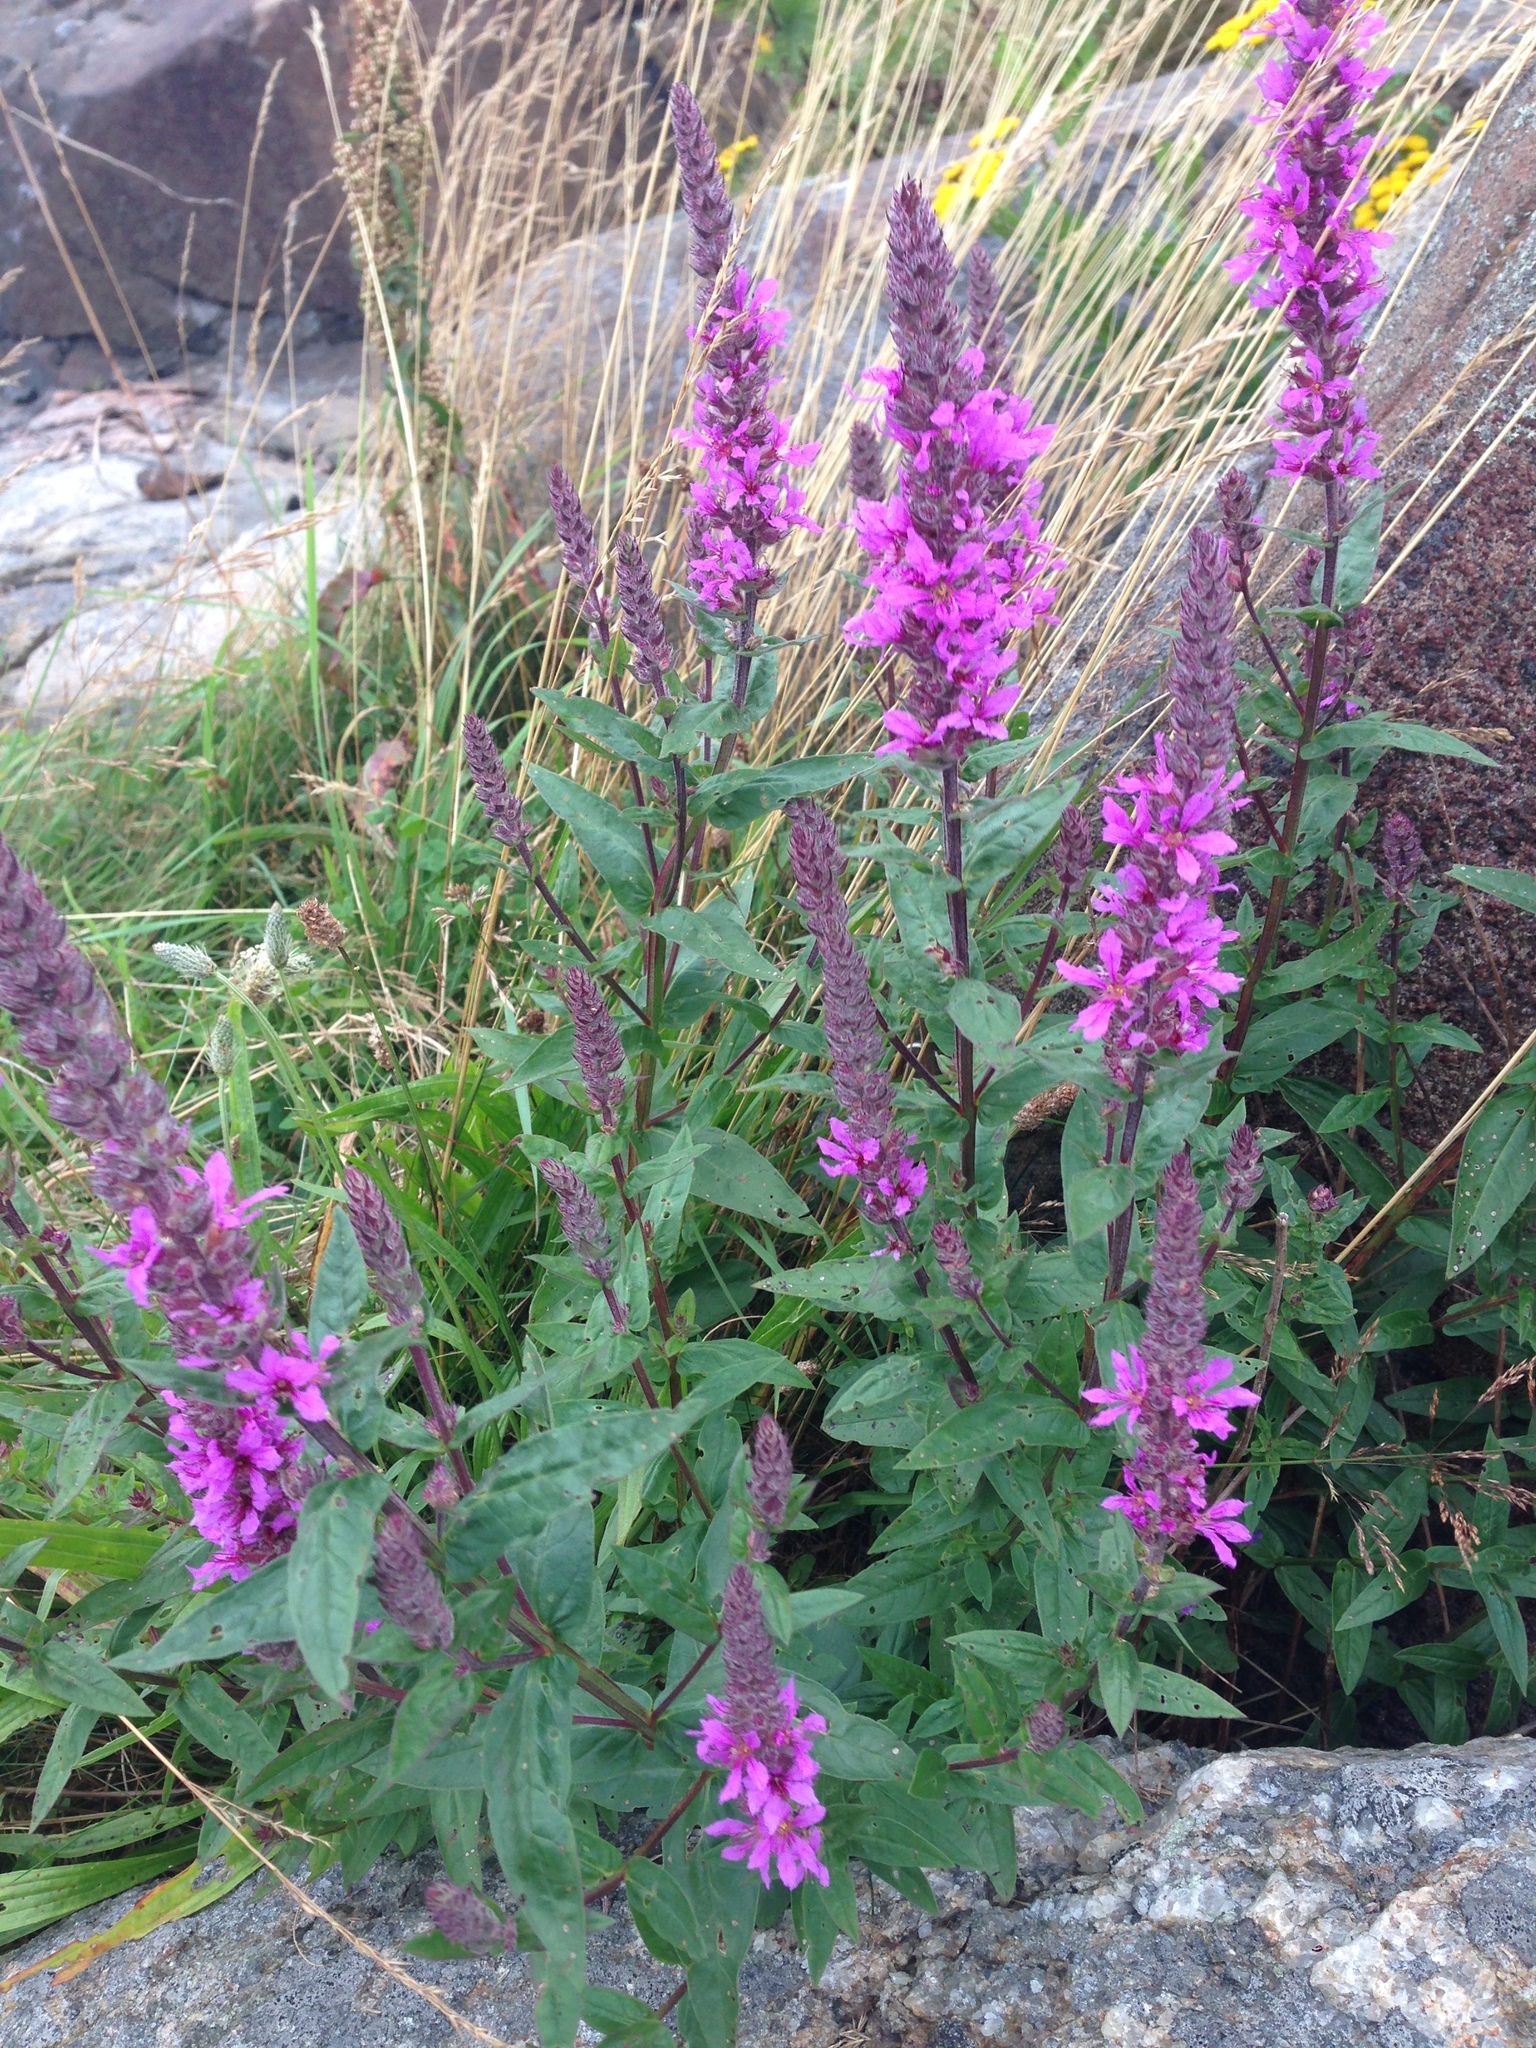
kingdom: Plantae
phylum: Tracheophyta
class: Magnoliopsida
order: Myrtales
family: Lythraceae
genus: Lythrum
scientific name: Lythrum salicaria
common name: Purple loosestrife
